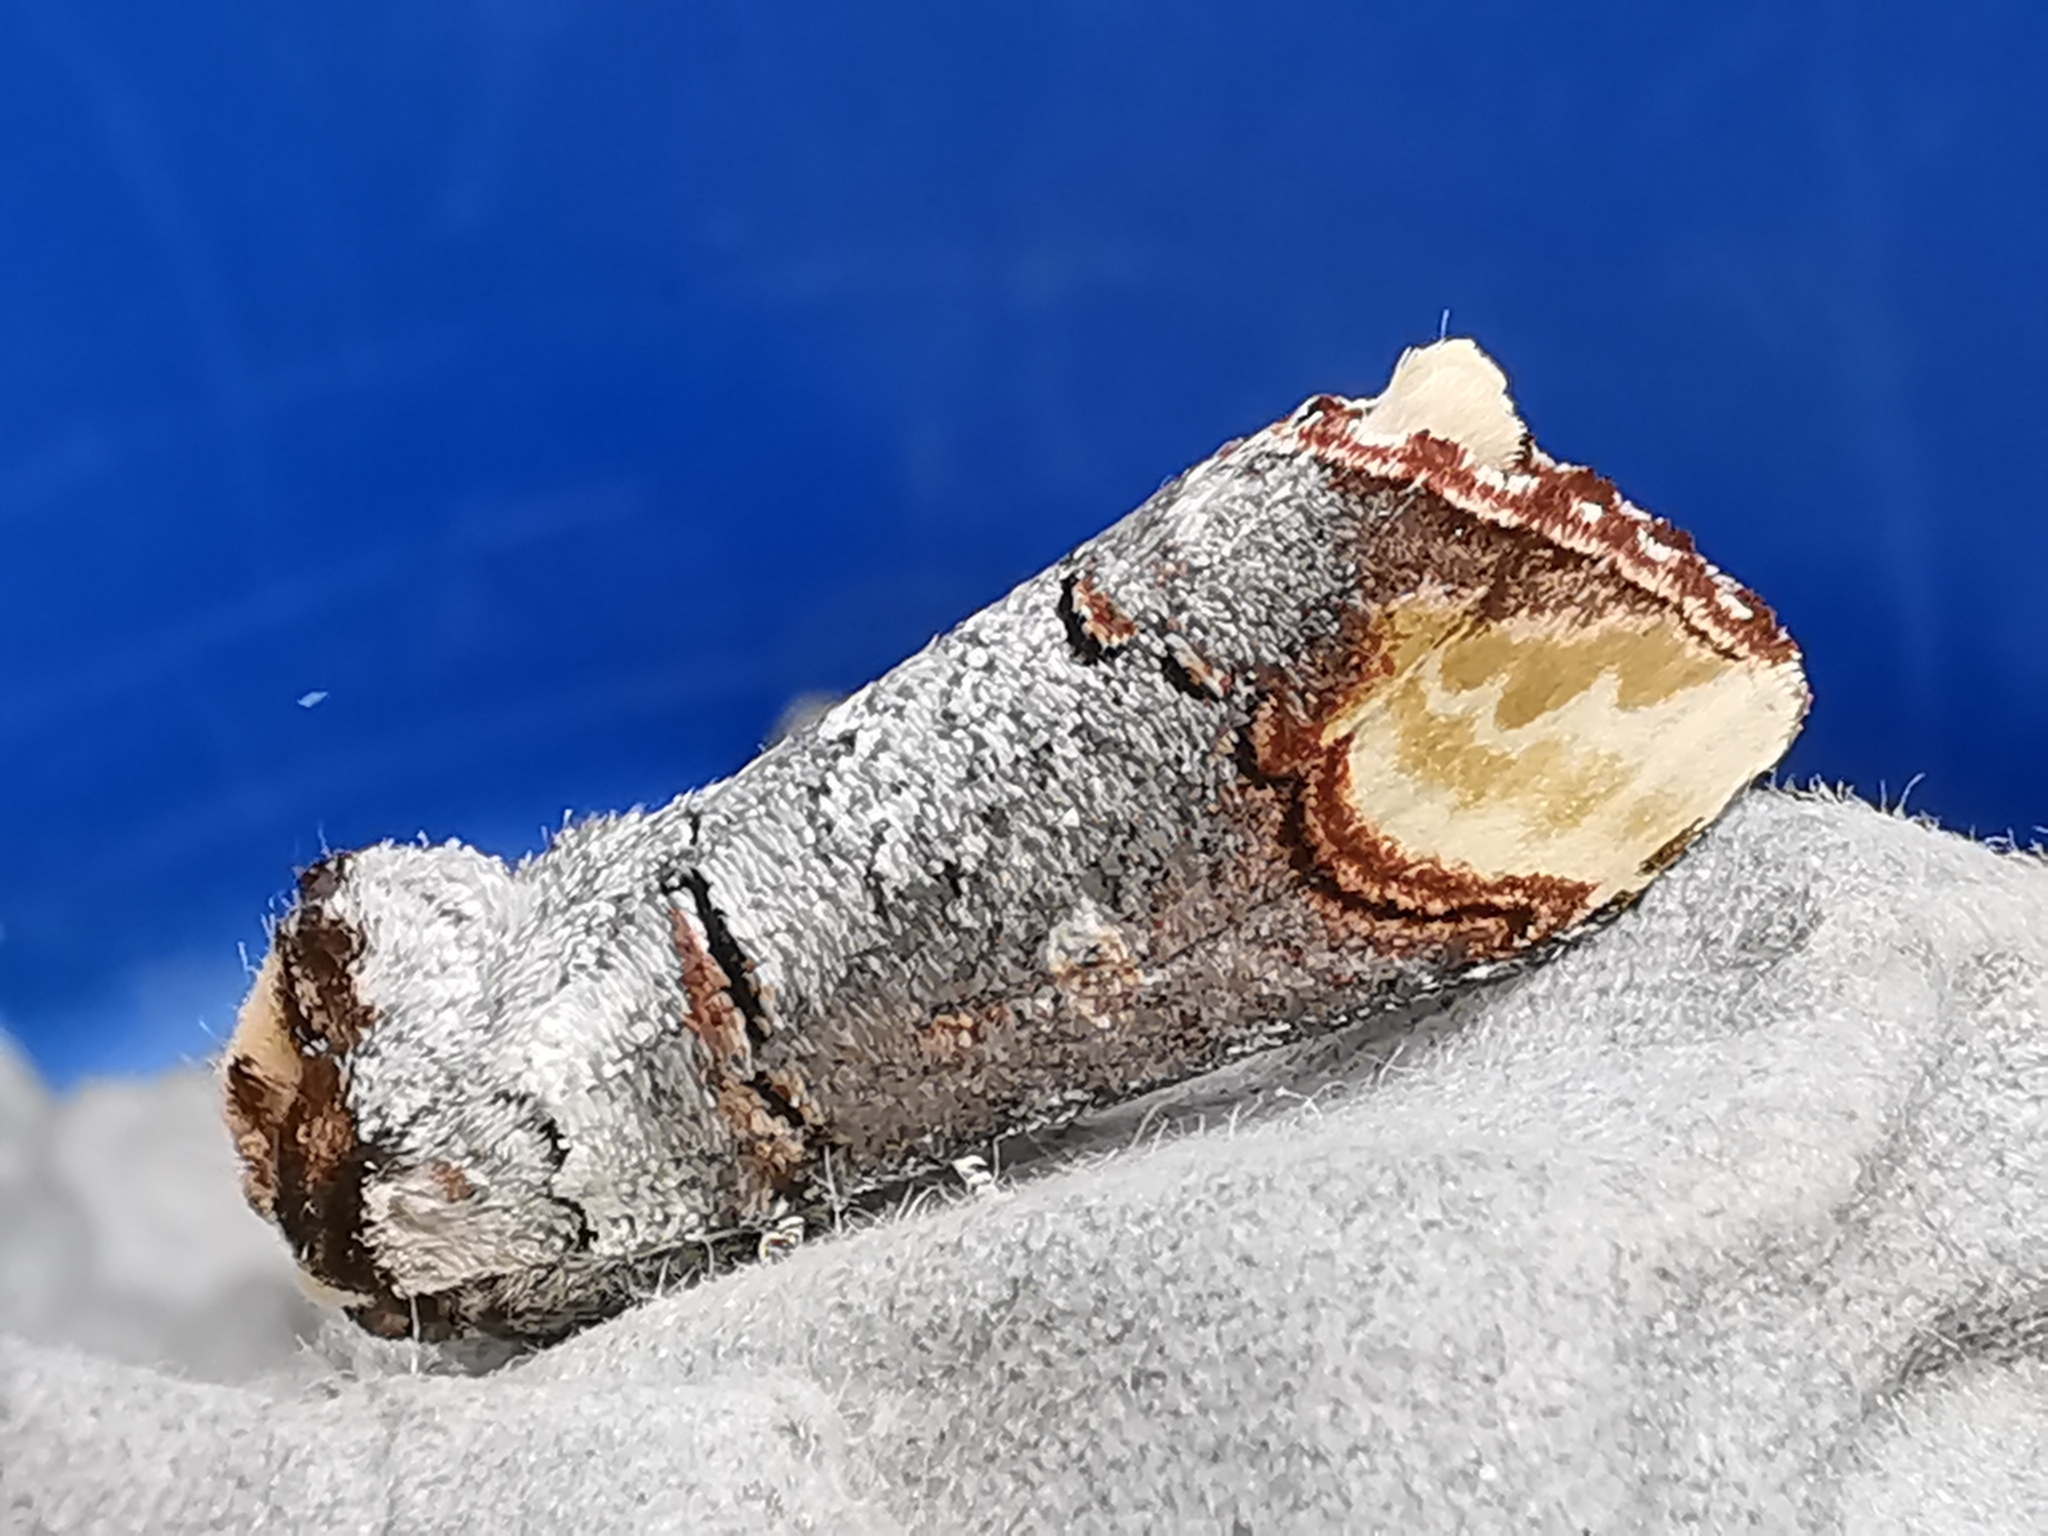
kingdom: Animalia
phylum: Arthropoda
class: Insecta
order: Lepidoptera
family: Notodontidae
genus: Phalera
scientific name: Phalera bucephala
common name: Buff-tip
